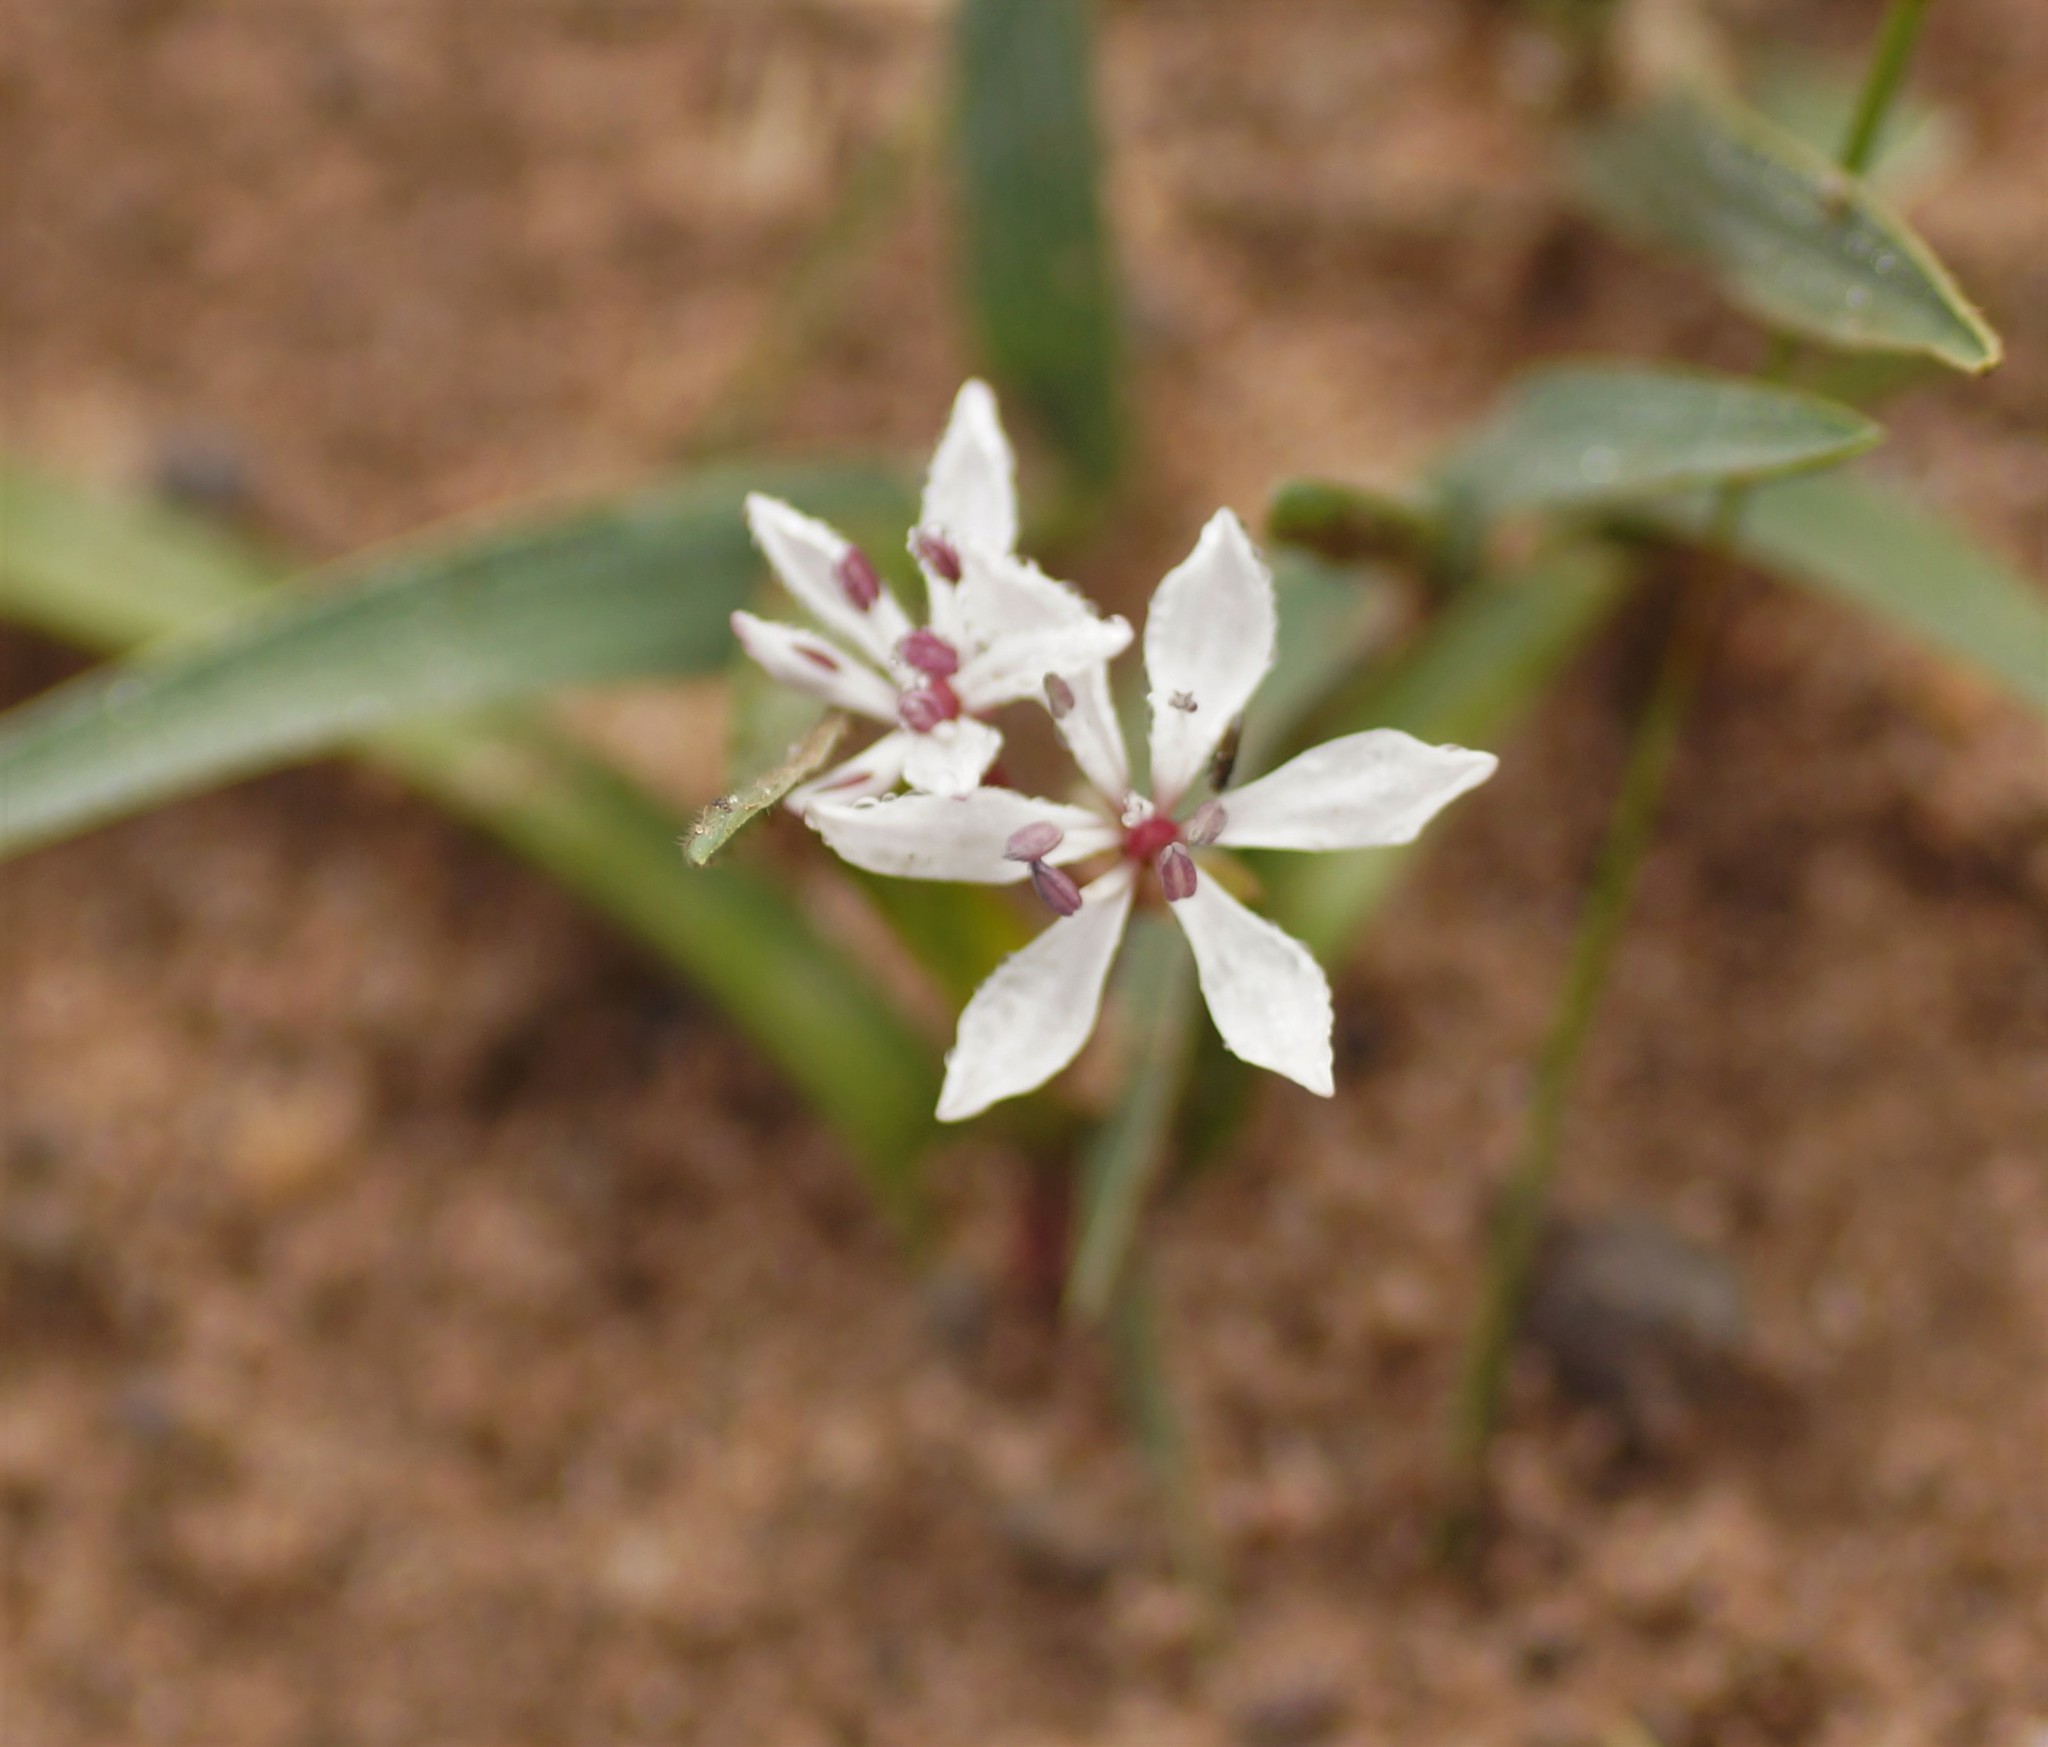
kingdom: Plantae
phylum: Tracheophyta
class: Liliopsida
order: Liliales
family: Colchicaceae
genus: Burchardia
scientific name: Burchardia umbellata
